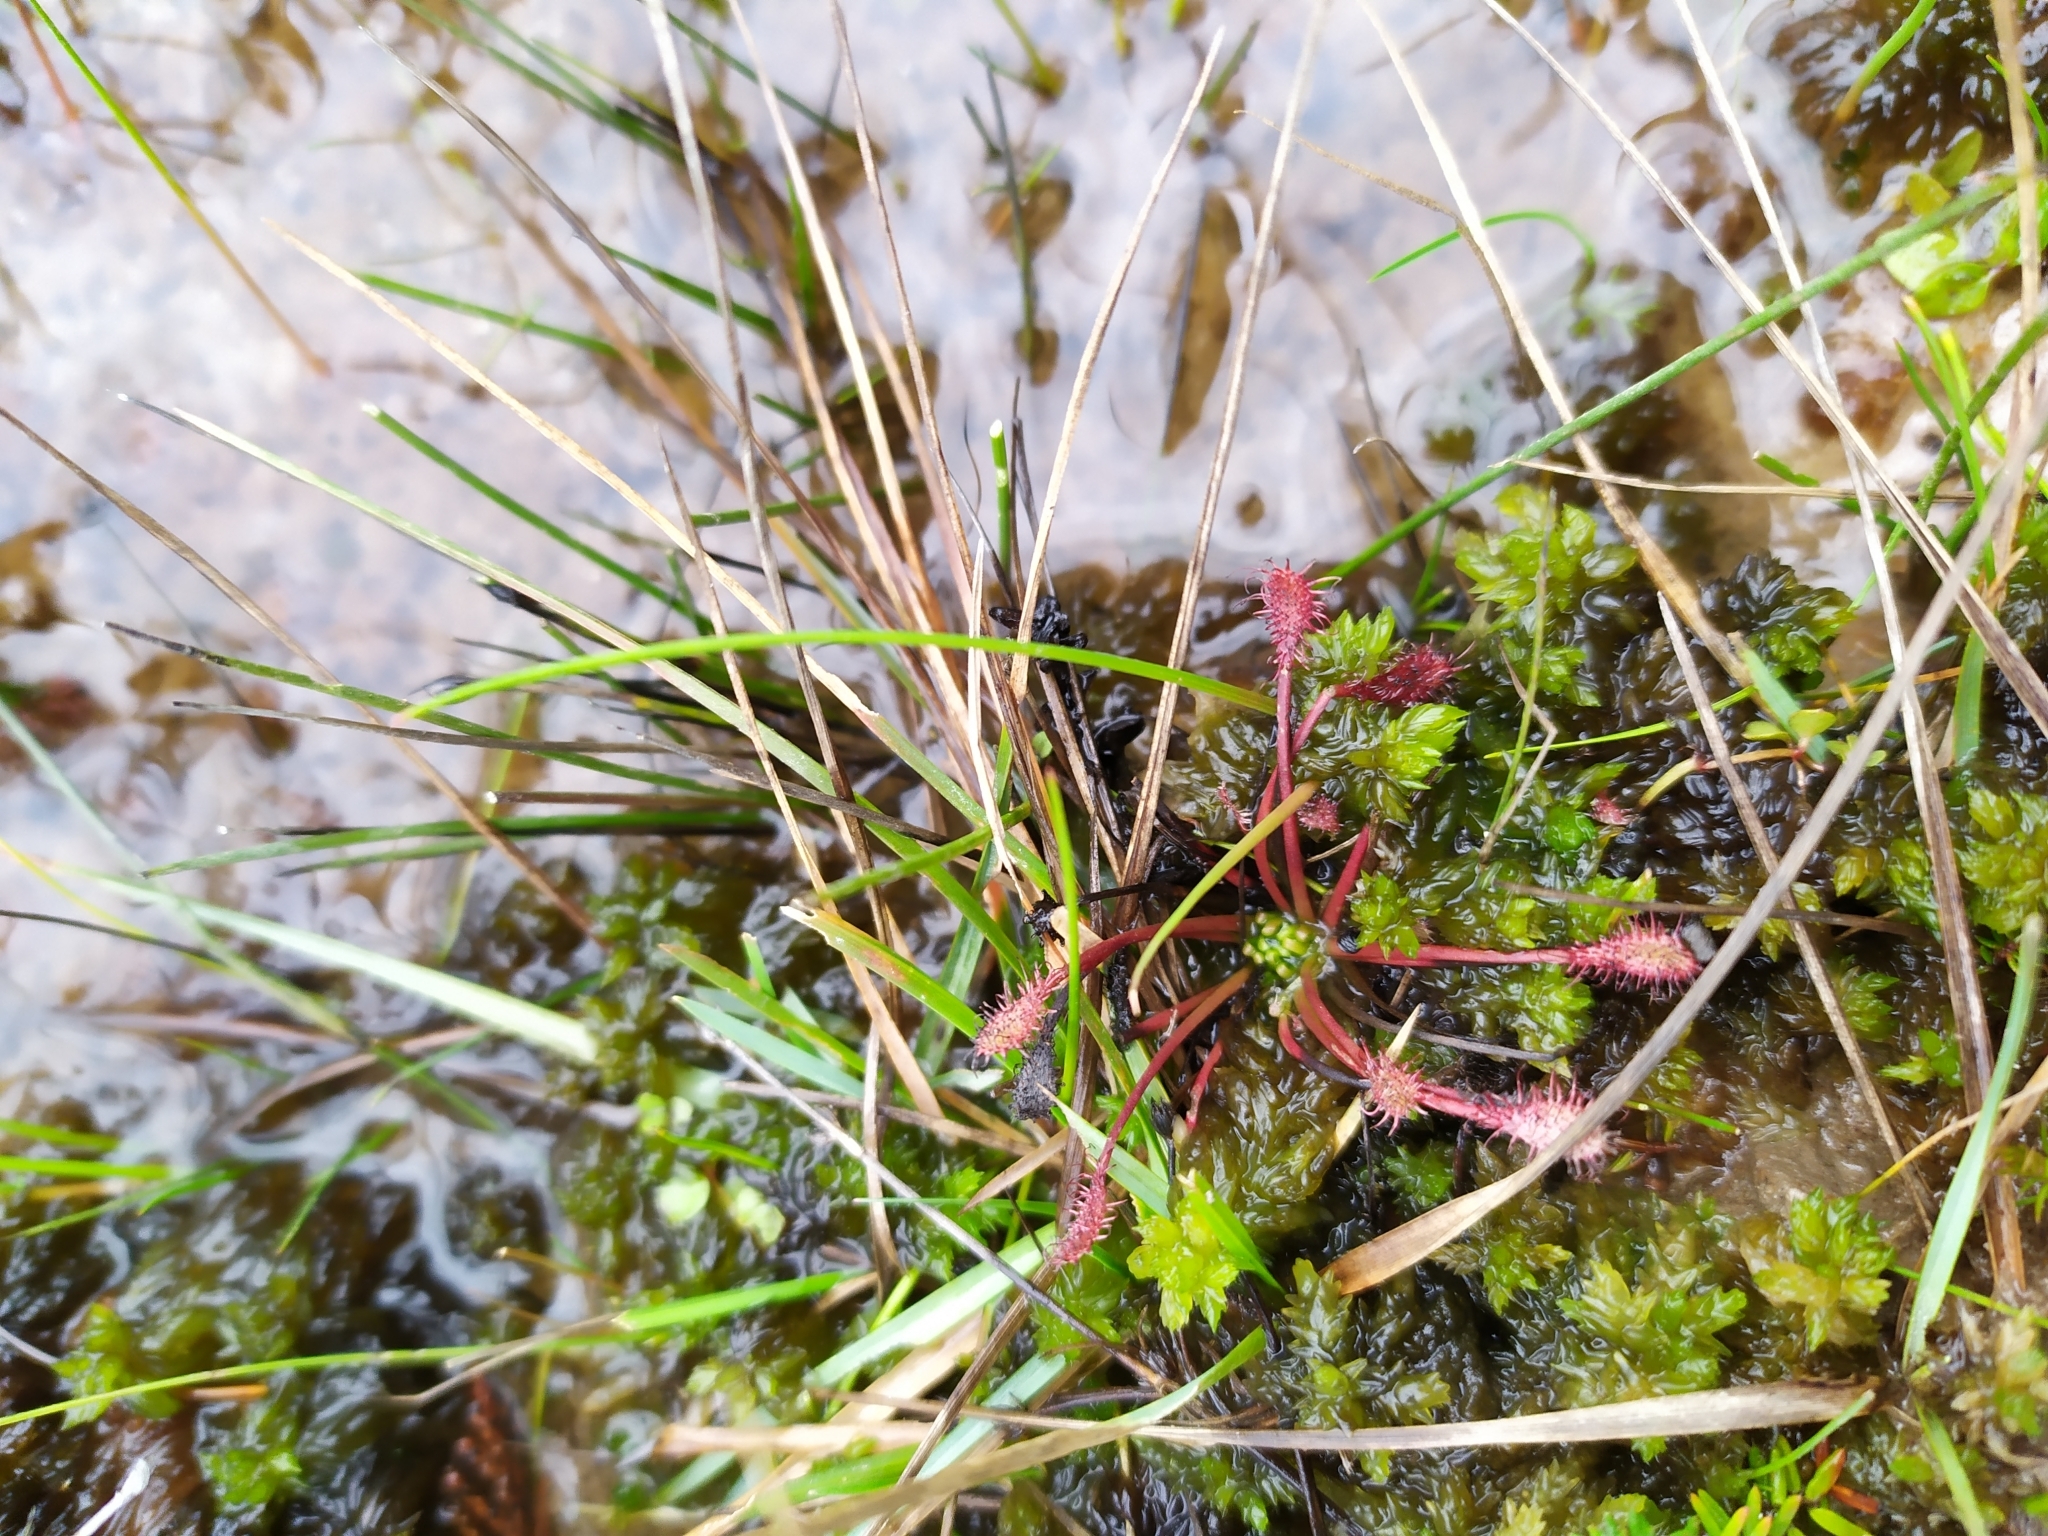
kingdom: Plantae
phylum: Tracheophyta
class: Magnoliopsida
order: Caryophyllales
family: Droseraceae
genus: Drosera
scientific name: Drosera intermedia
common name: Oblong-leaved sundew
